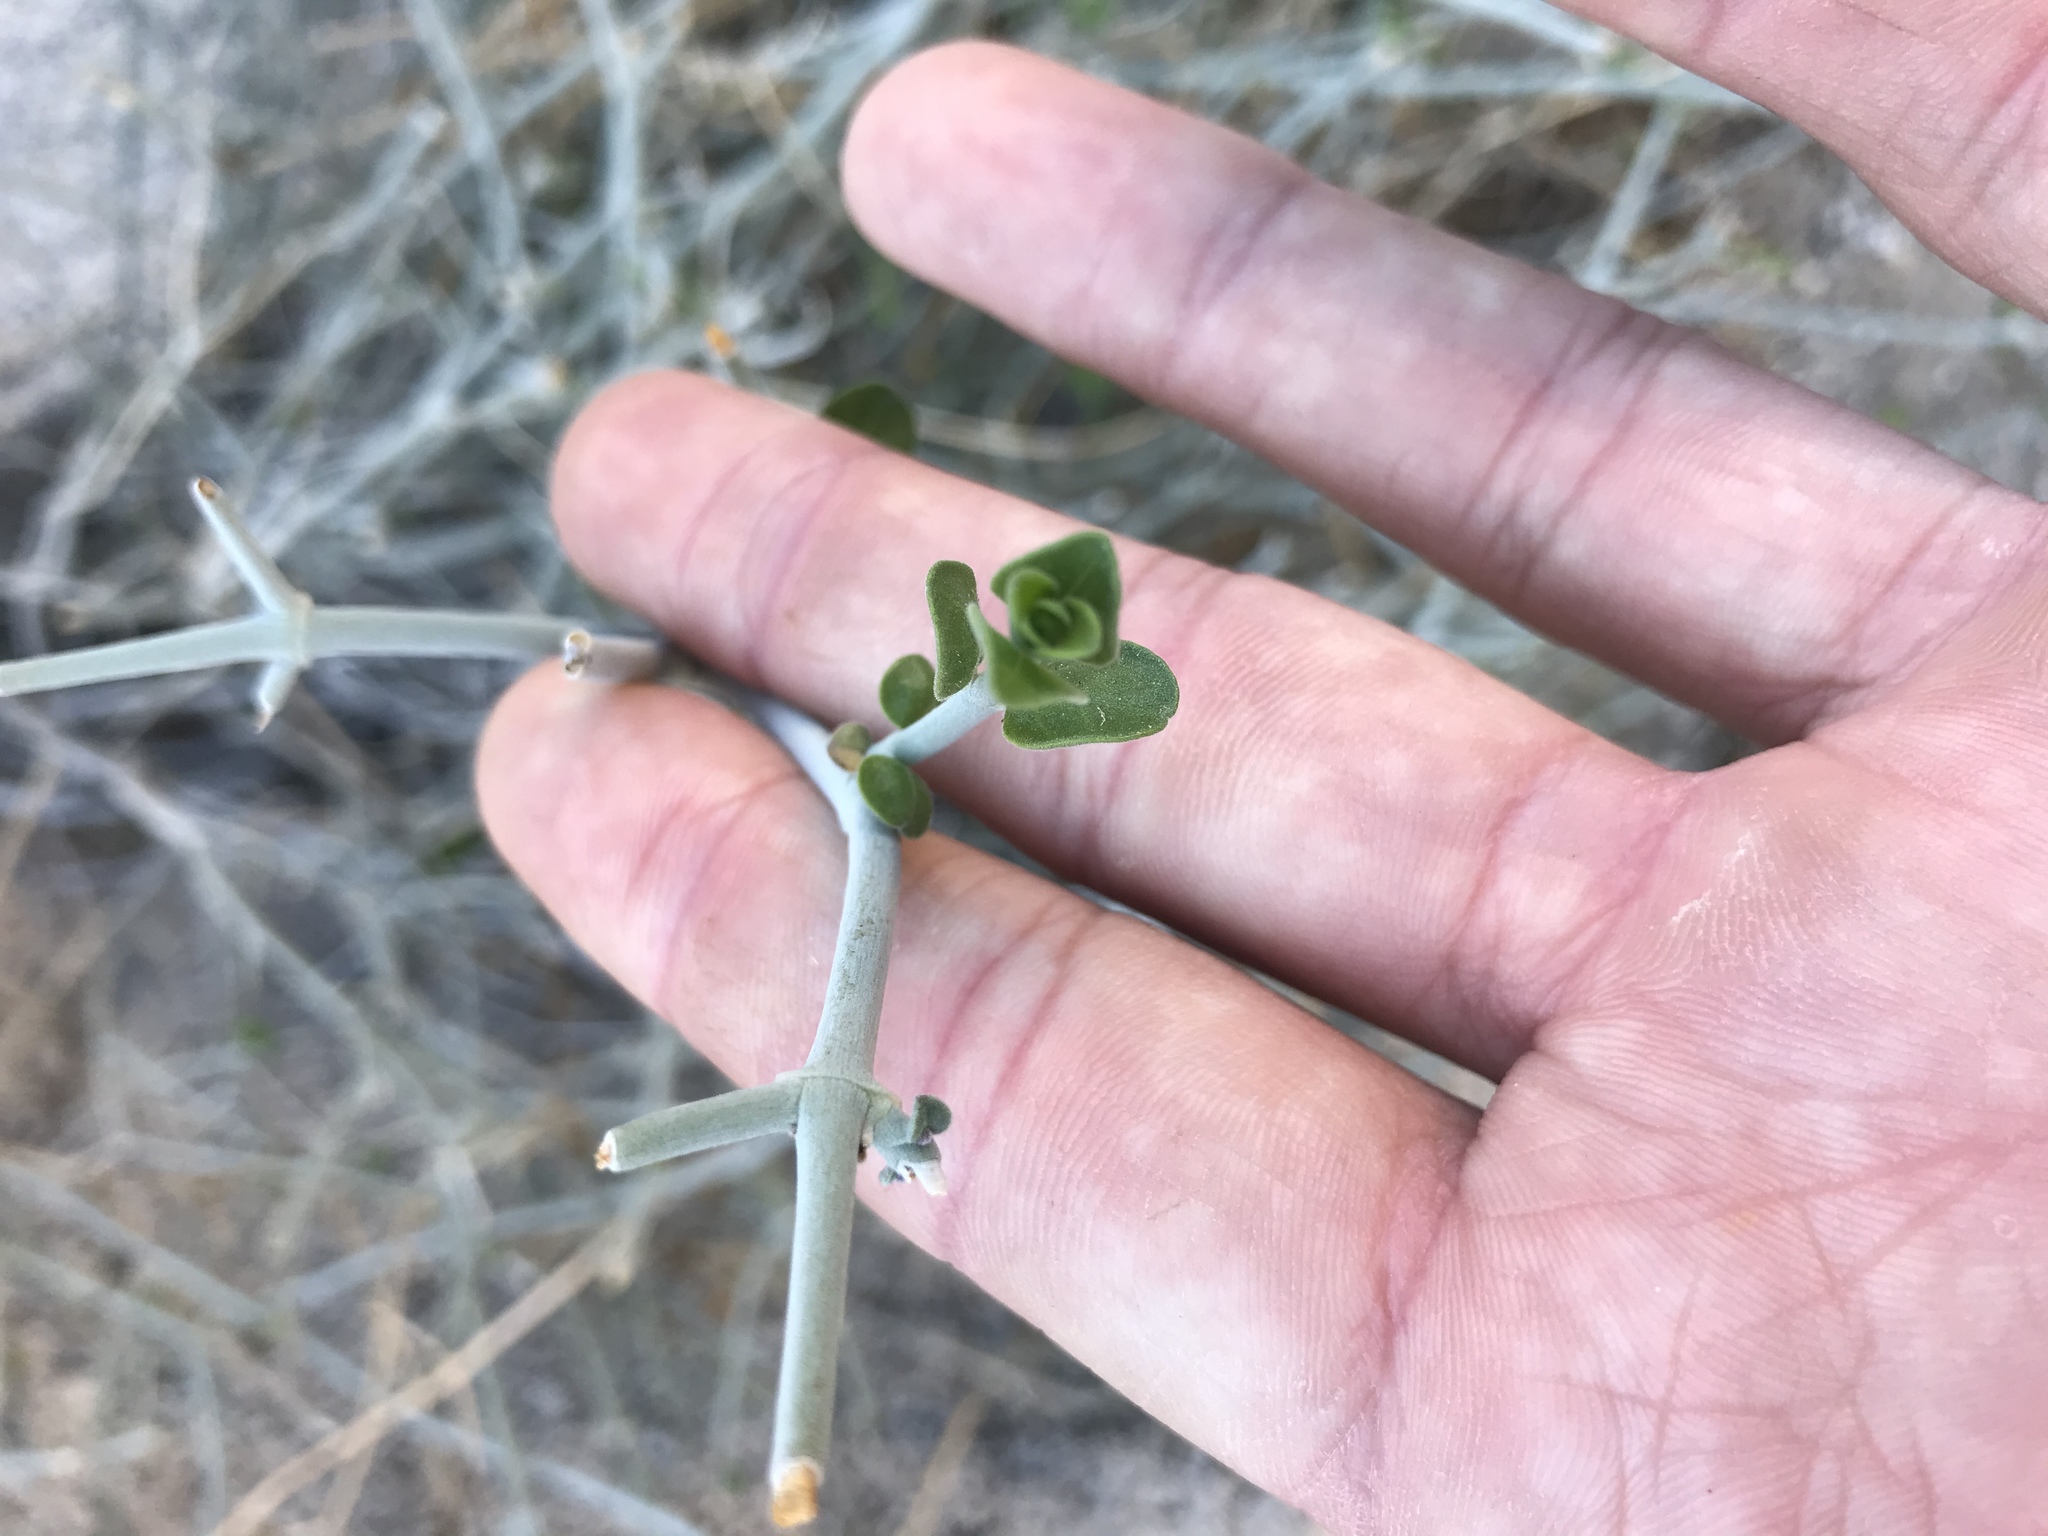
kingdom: Plantae
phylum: Tracheophyta
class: Magnoliopsida
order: Lamiales
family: Acanthaceae
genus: Justicia
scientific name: Justicia californica
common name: Chuparosa-honeysuckle
